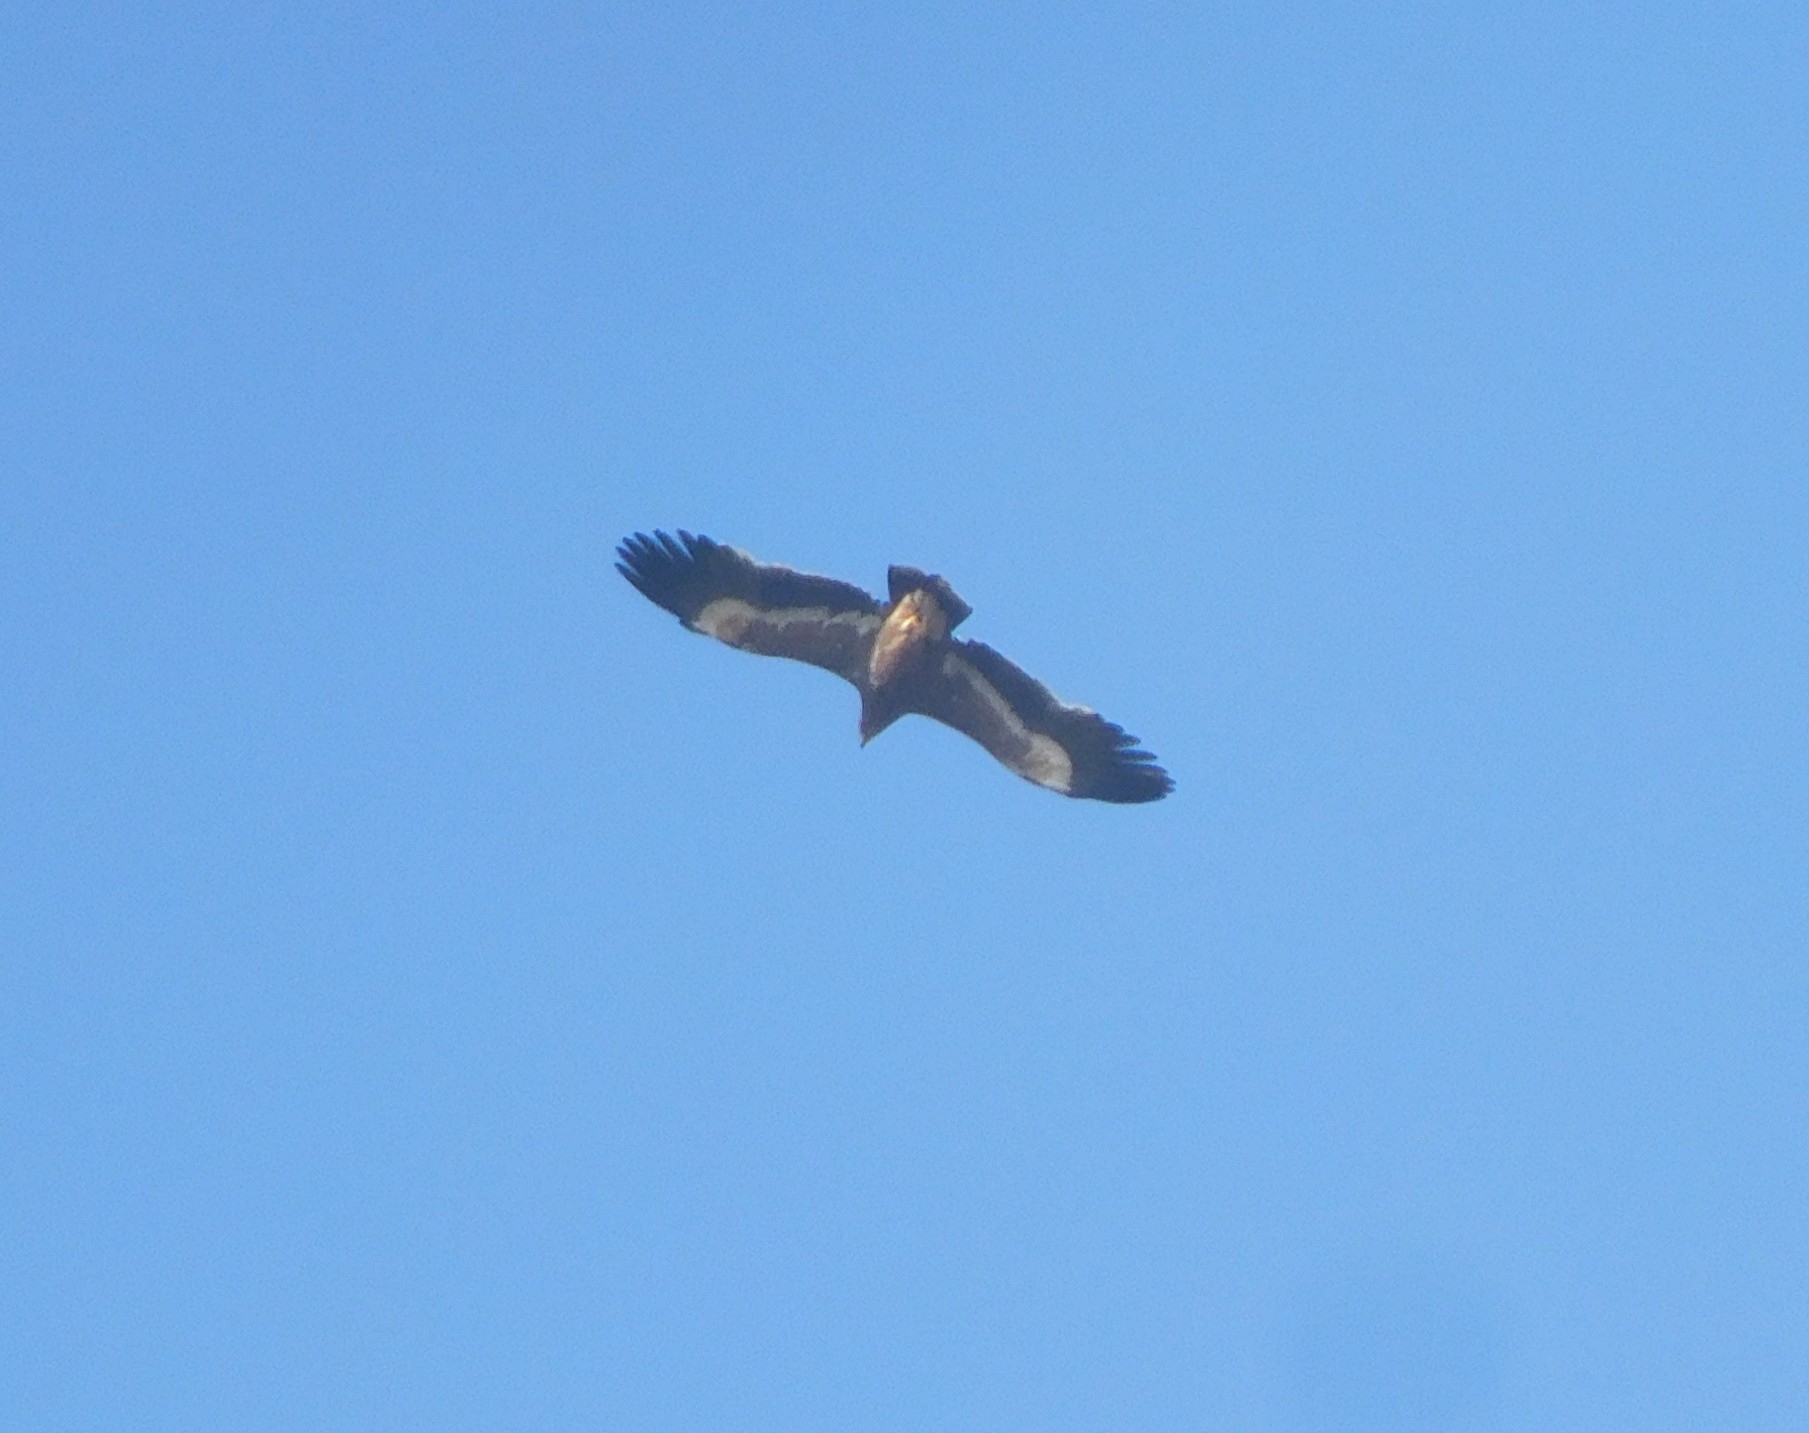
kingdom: Animalia
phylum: Chordata
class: Aves
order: Accipitriformes
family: Accipitridae
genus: Aquila
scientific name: Aquila nipalensis
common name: Steppe eagle
